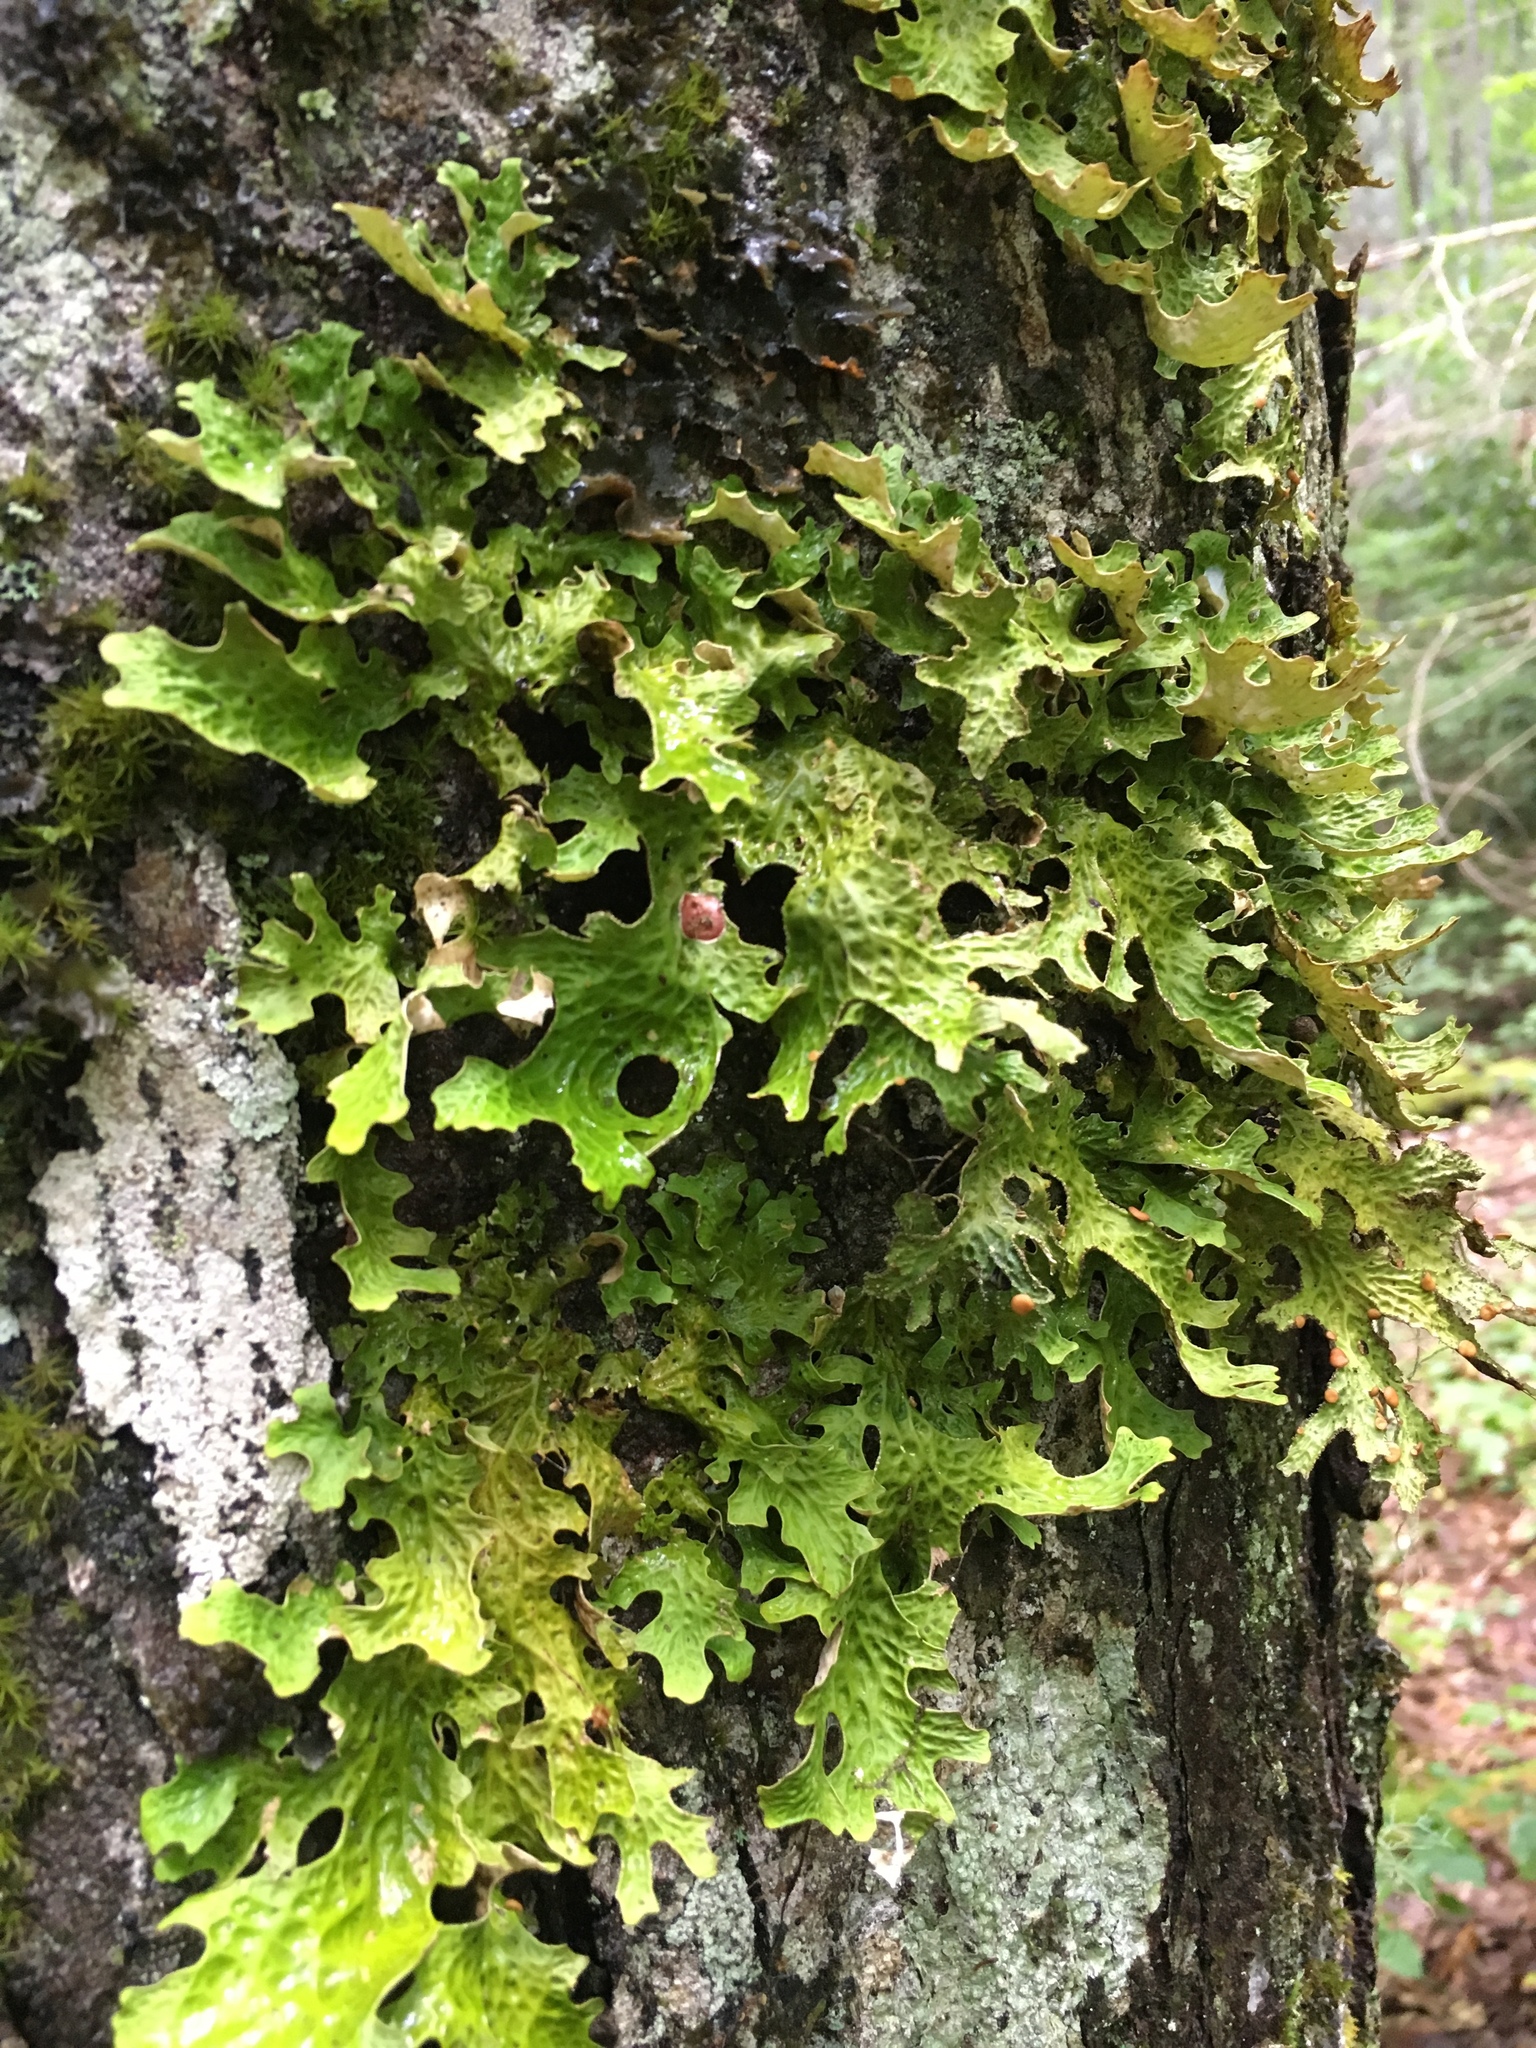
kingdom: Fungi
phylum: Ascomycota
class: Lecanoromycetes
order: Peltigerales
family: Lobariaceae
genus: Lobaria
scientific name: Lobaria pulmonaria
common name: Lungwort
